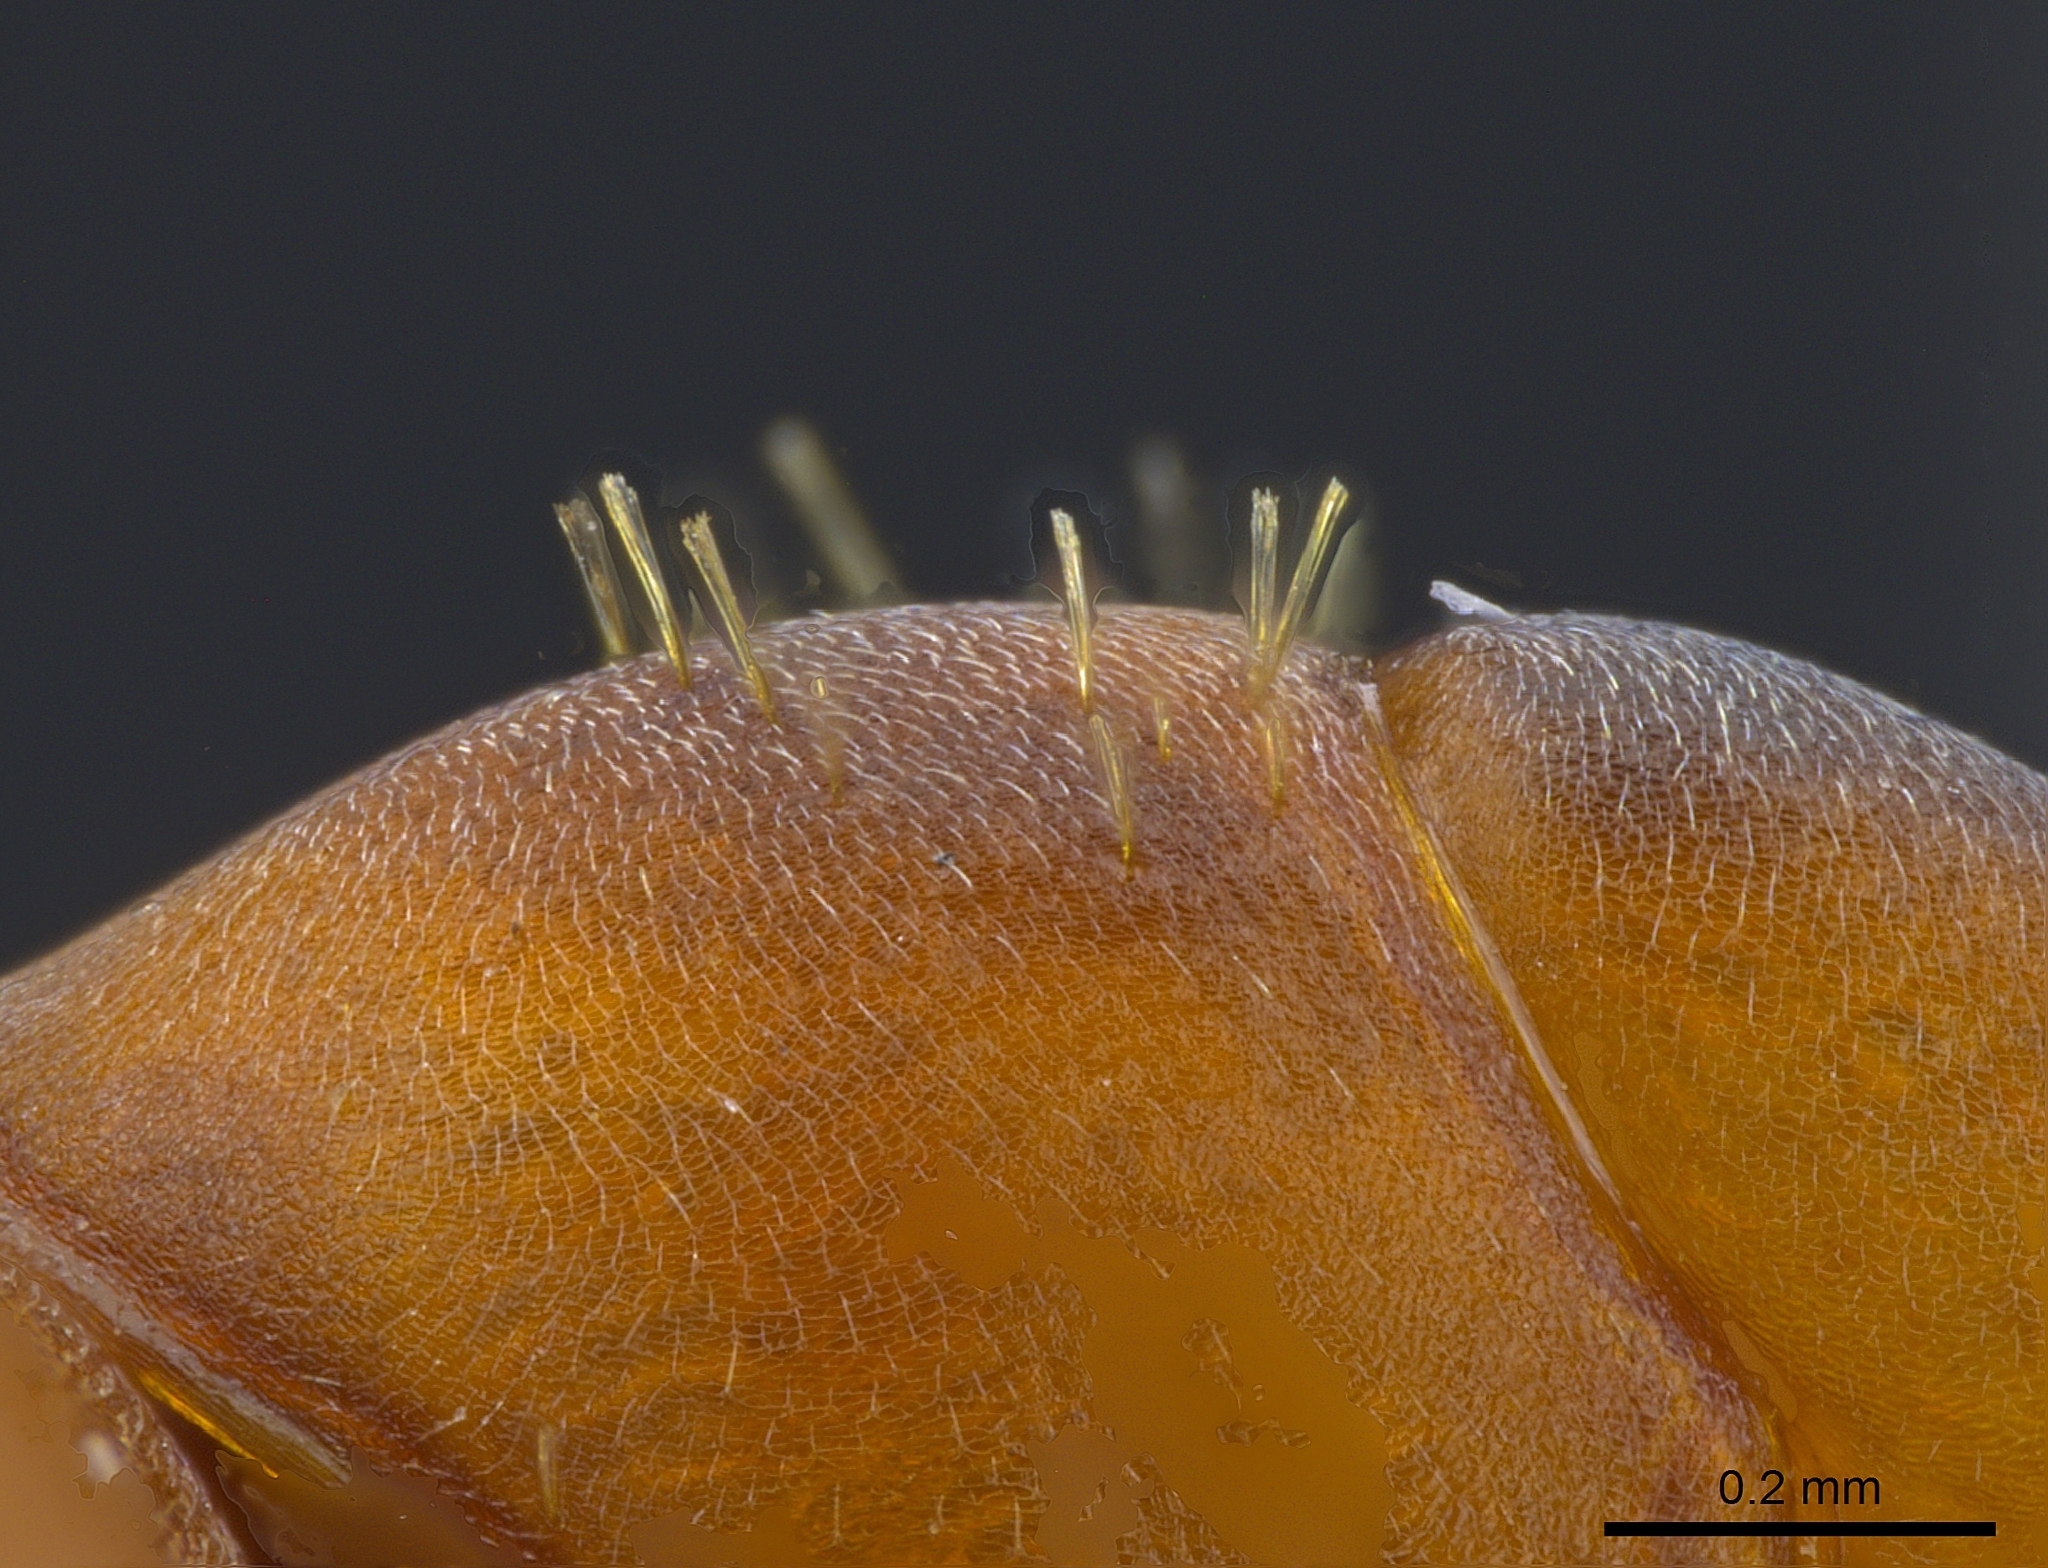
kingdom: Animalia
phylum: Arthropoda
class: Insecta
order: Hymenoptera
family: Formicidae
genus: Formica
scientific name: Formica densiventris
